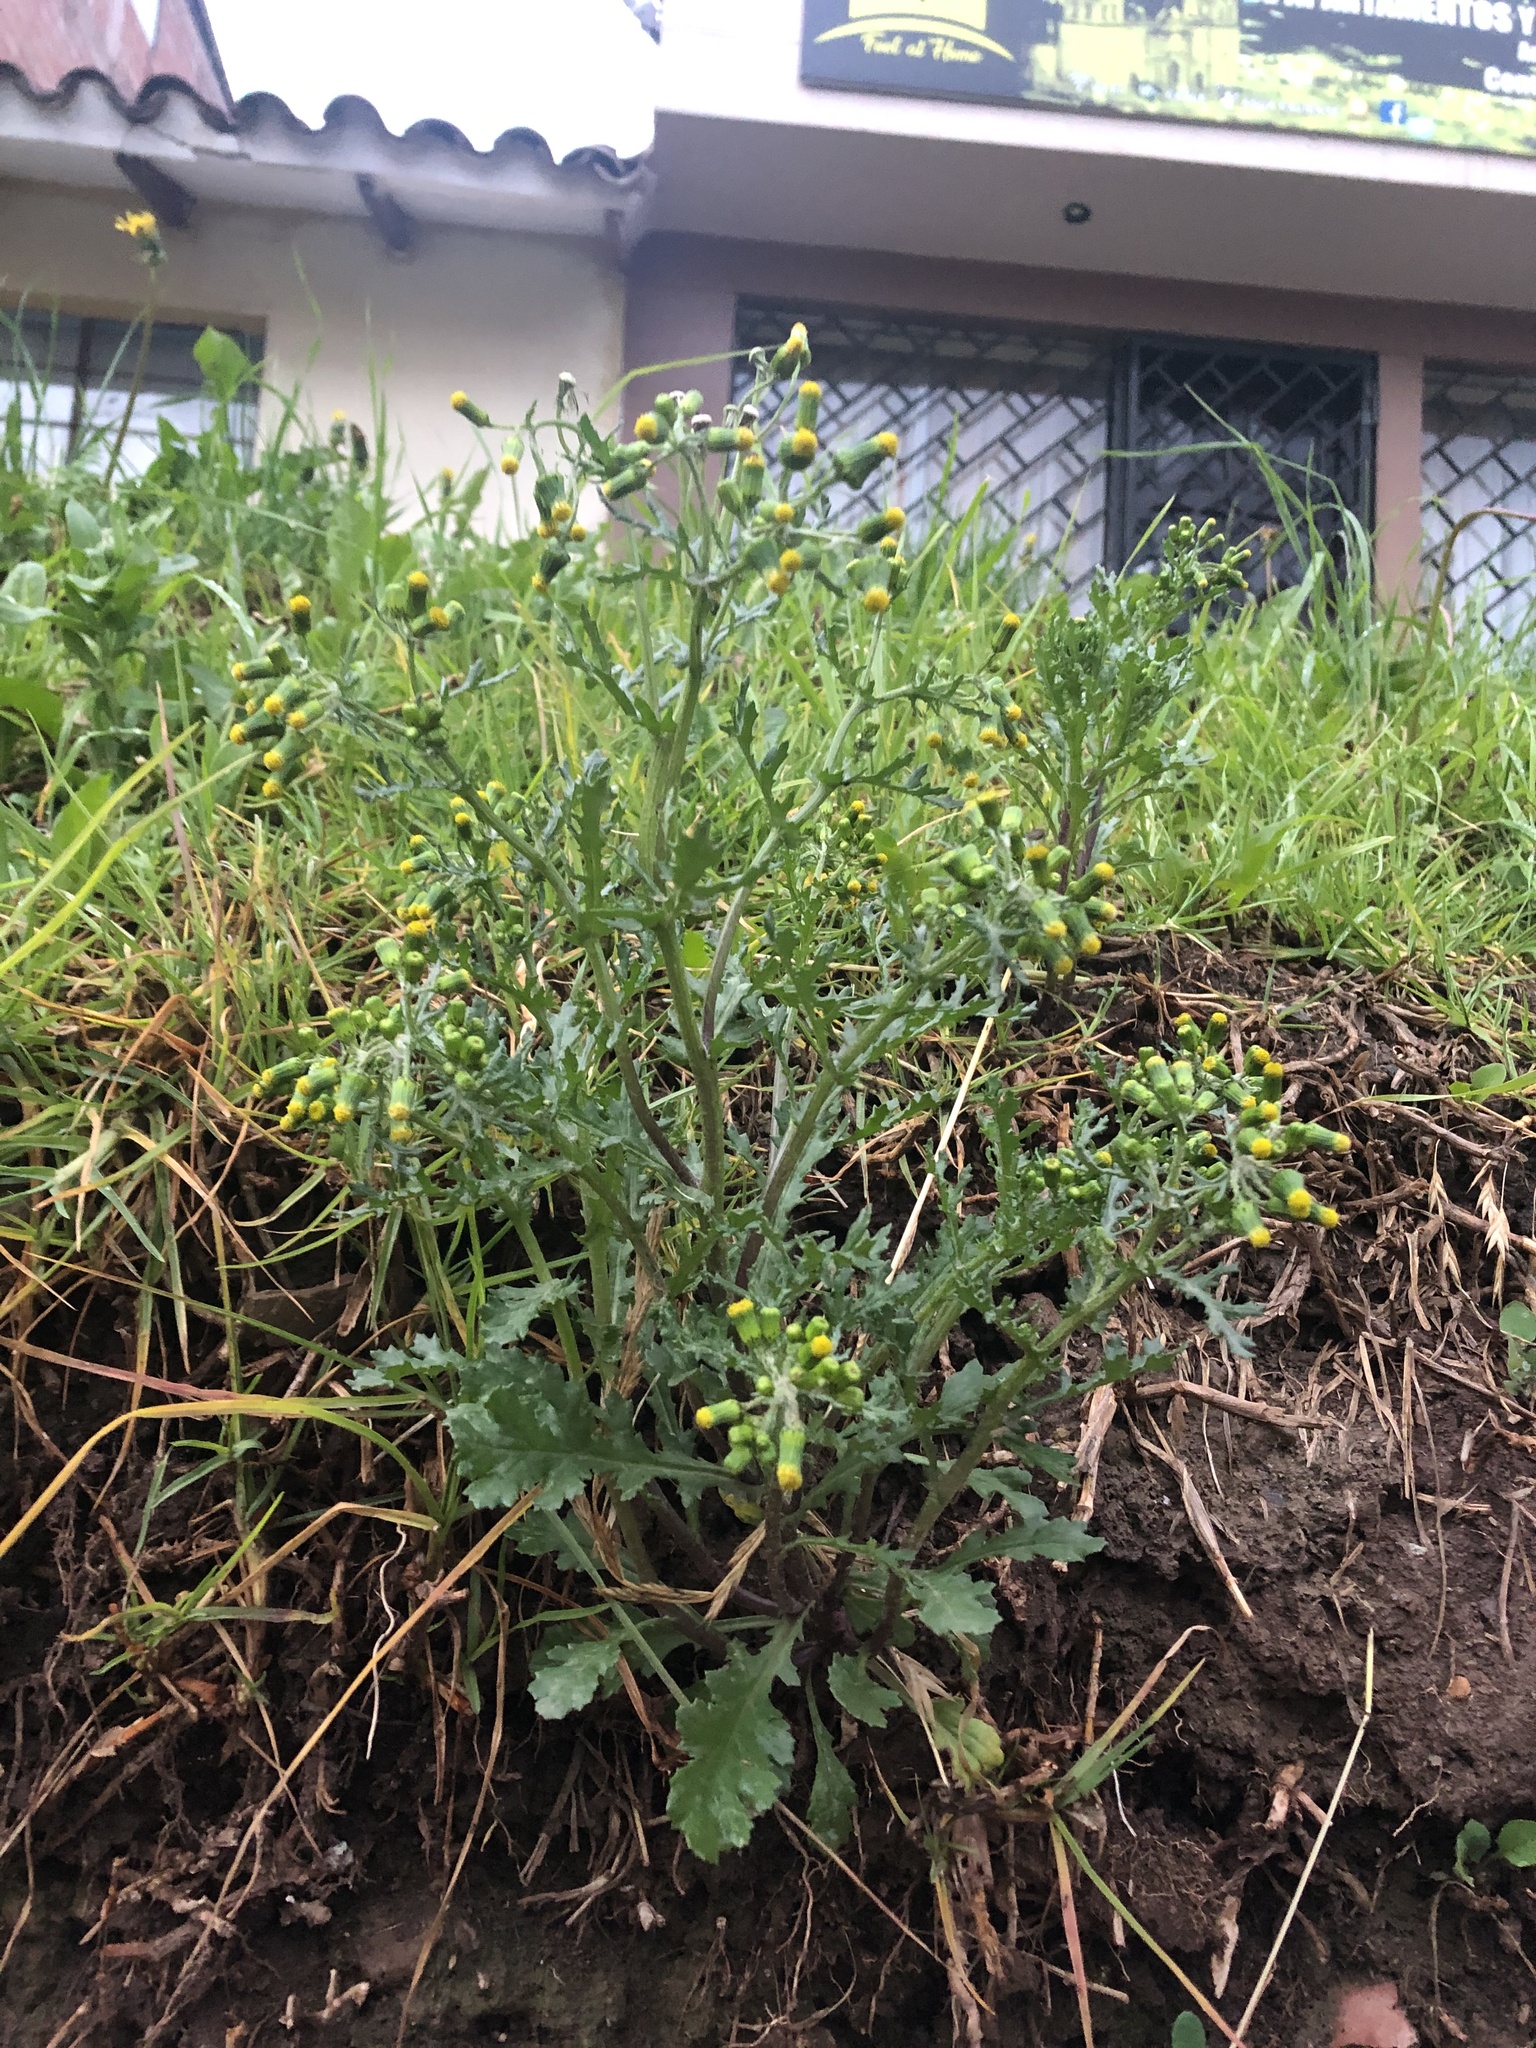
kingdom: Plantae
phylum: Tracheophyta
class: Magnoliopsida
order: Asterales
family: Asteraceae
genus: Senecio
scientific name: Senecio vulgaris
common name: Old-man-in-the-spring
